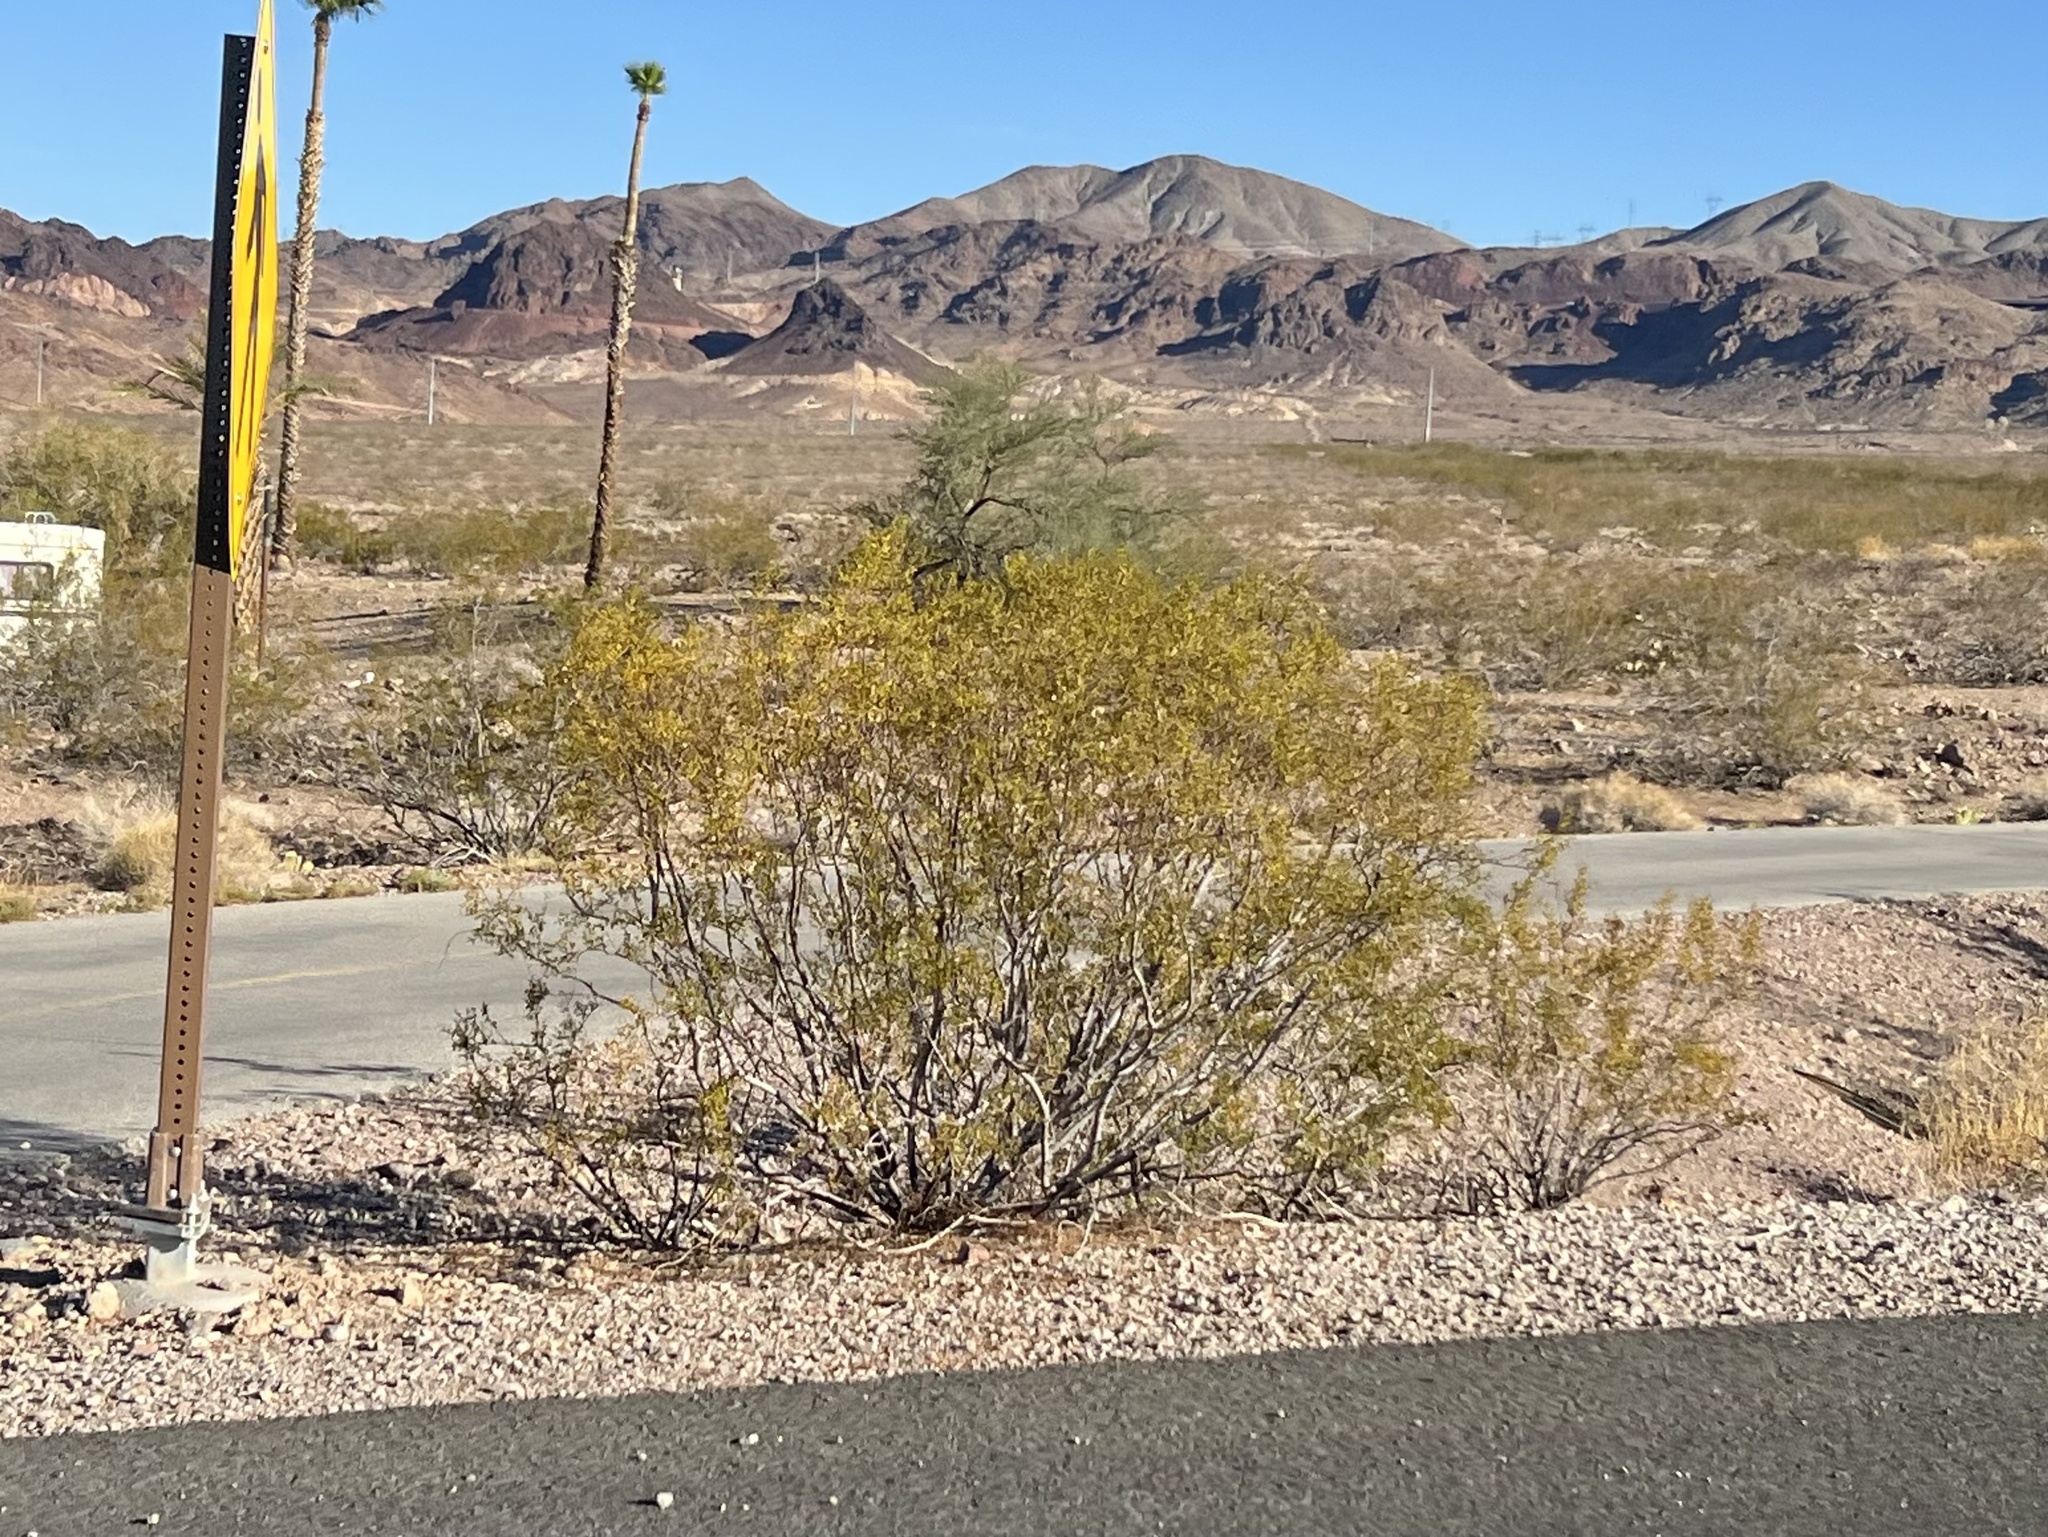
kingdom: Plantae
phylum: Tracheophyta
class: Magnoliopsida
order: Zygophyllales
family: Zygophyllaceae
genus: Larrea
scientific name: Larrea tridentata
